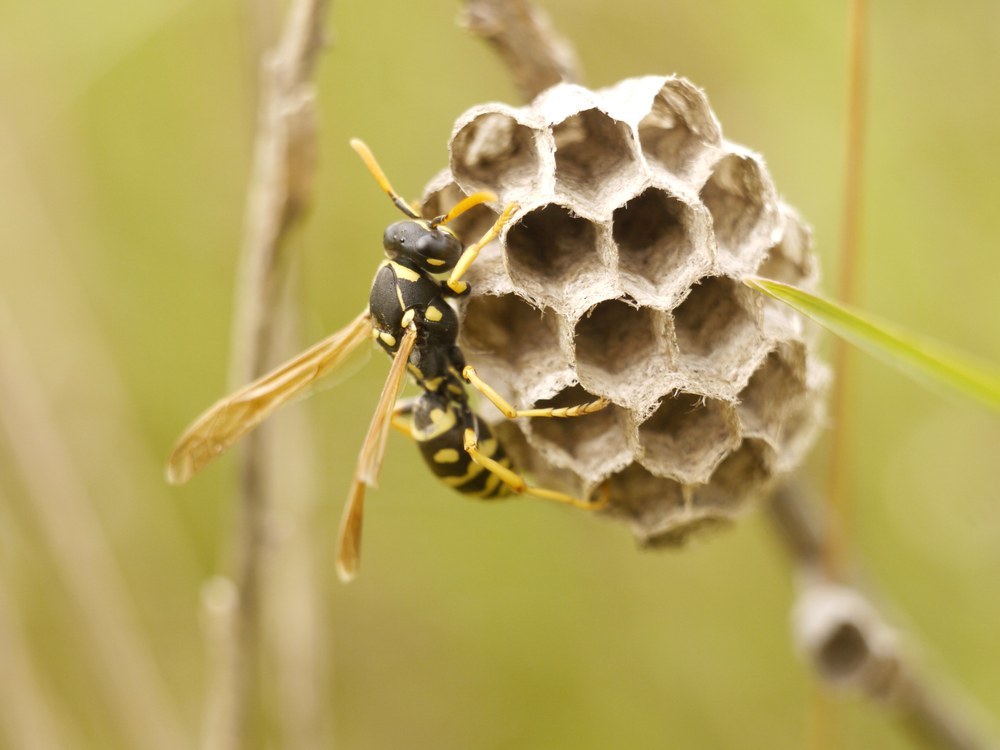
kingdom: Animalia
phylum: Arthropoda
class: Insecta
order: Hymenoptera
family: Eumenidae
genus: Polistes
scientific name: Polistes gallicus
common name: Paper wasp
